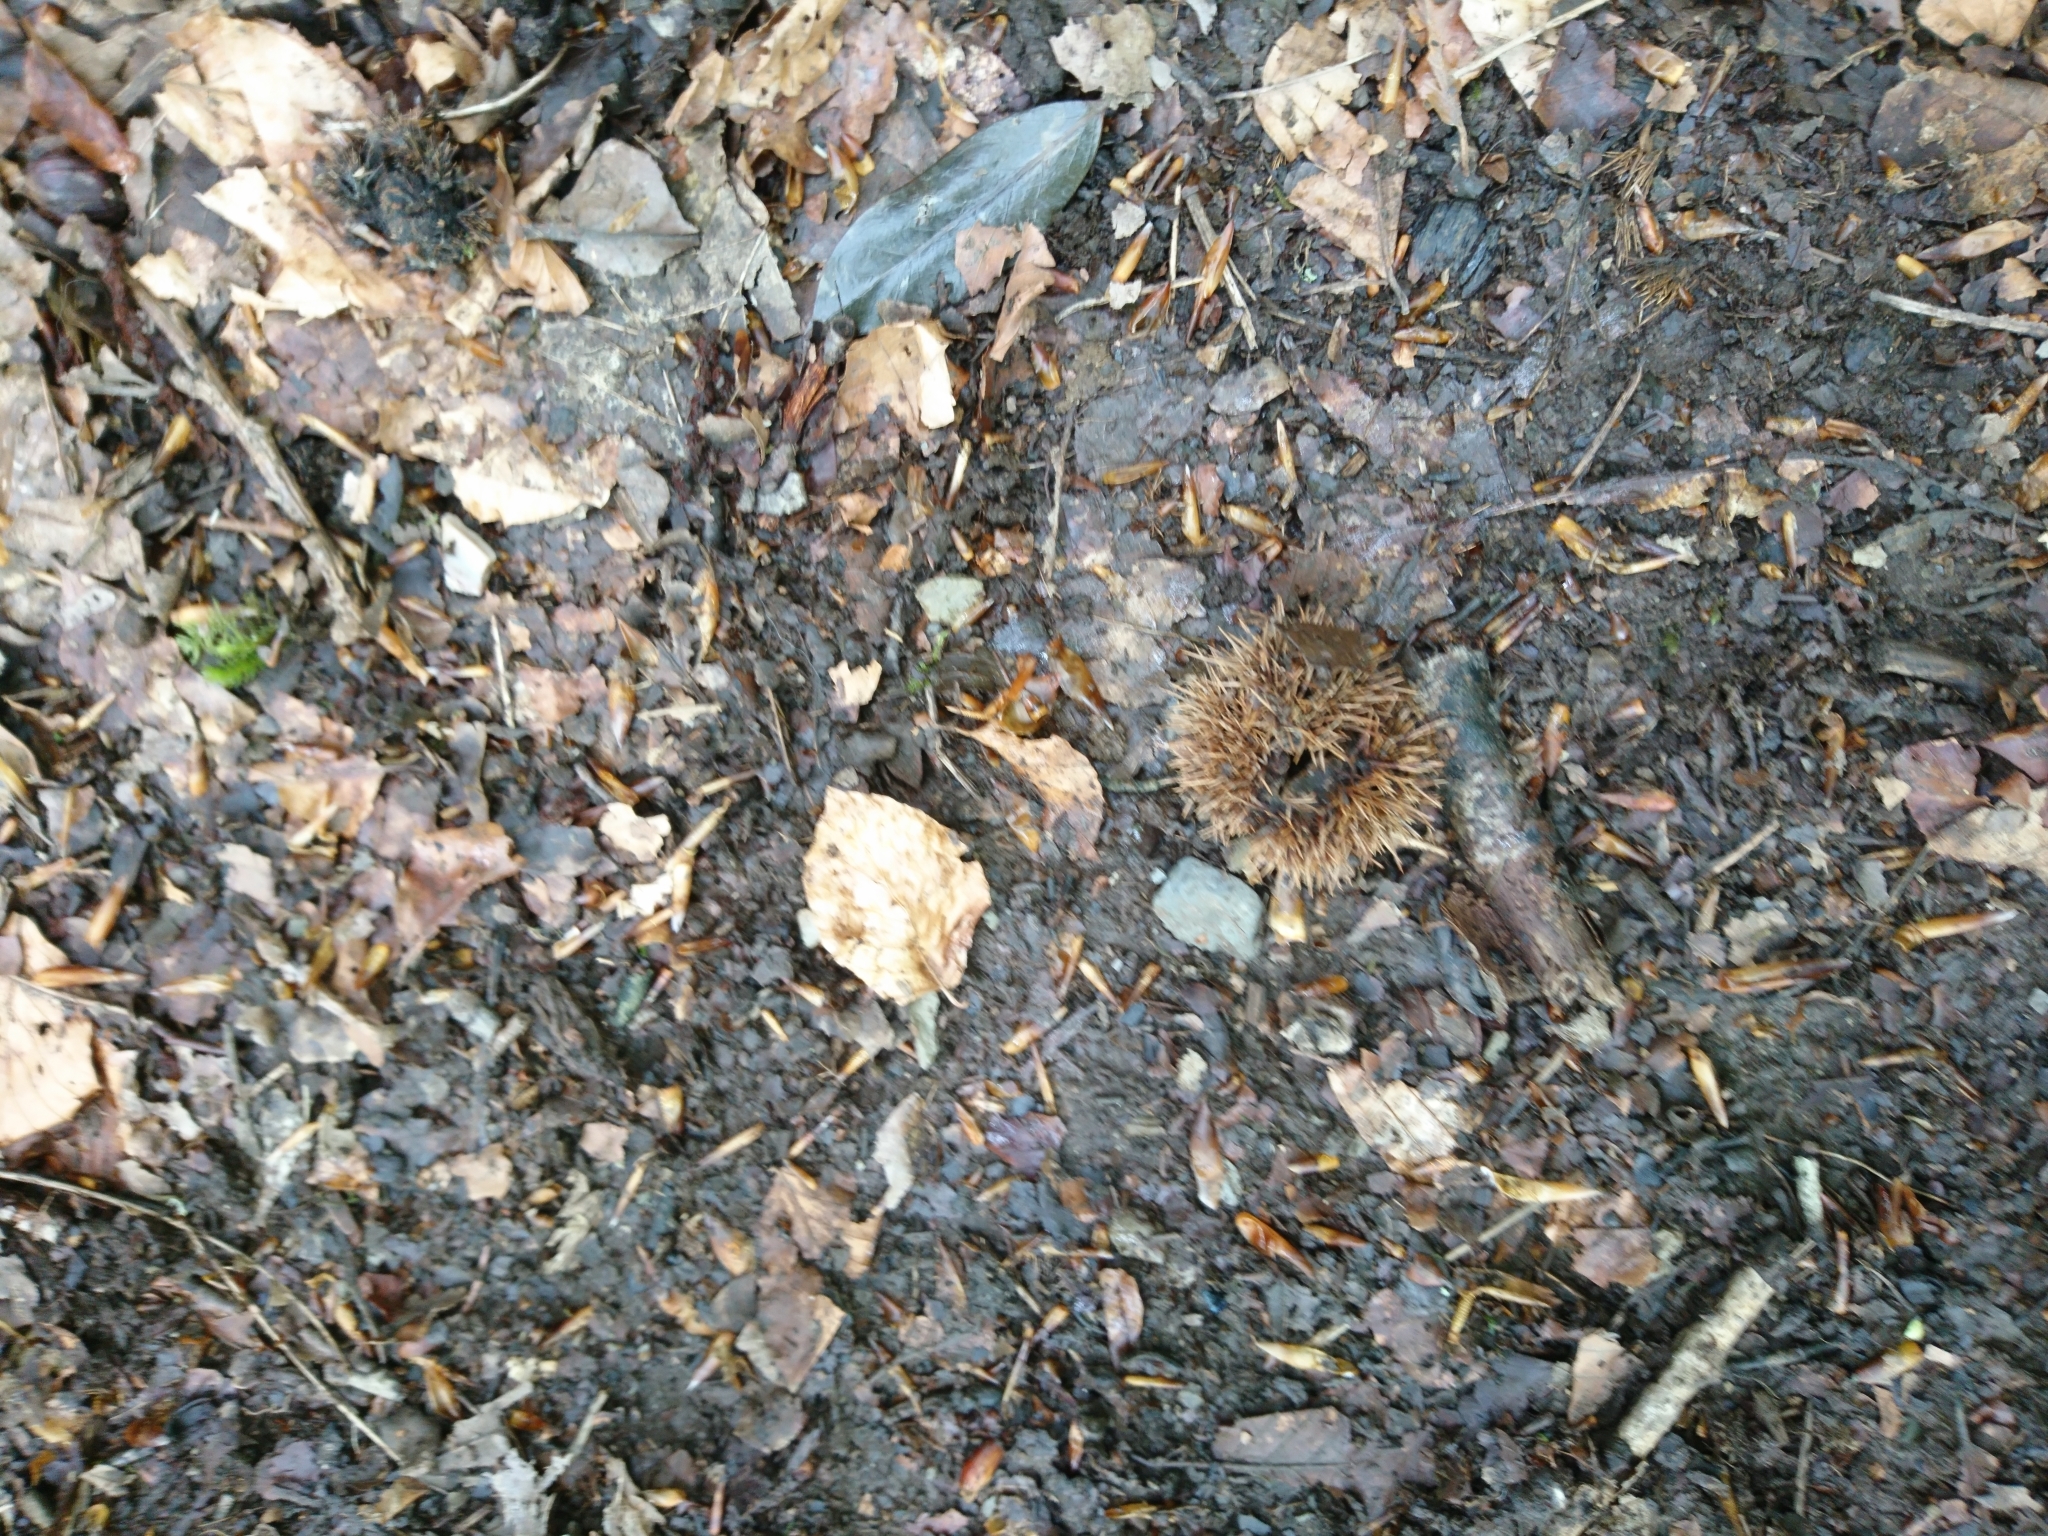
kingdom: Plantae
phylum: Tracheophyta
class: Magnoliopsida
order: Fagales
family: Fagaceae
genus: Castanea
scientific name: Castanea sativa
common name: Sweet chestnut
